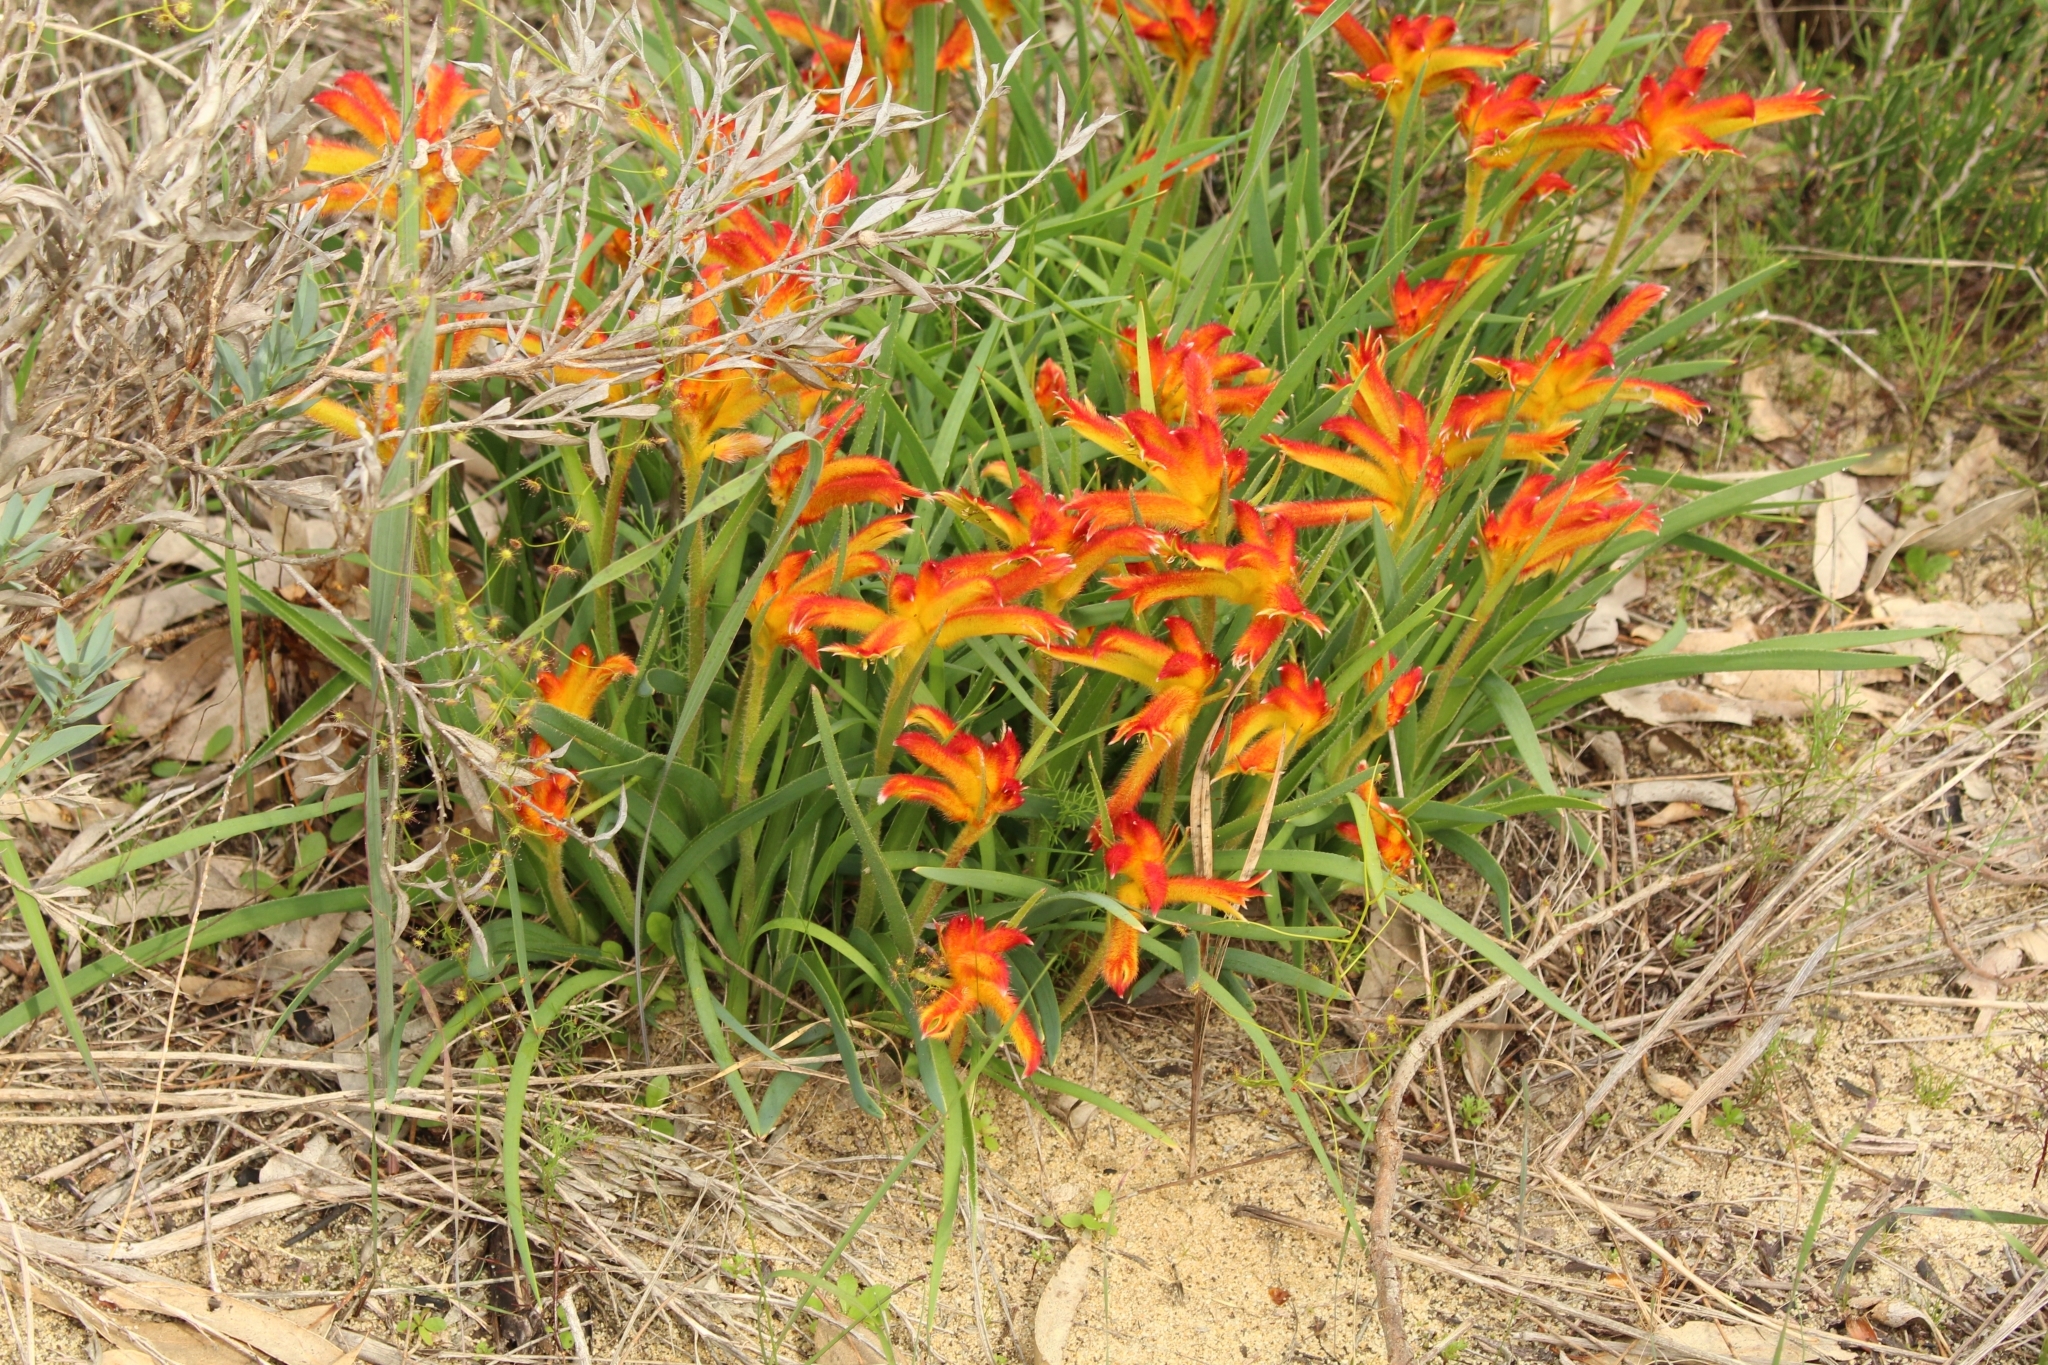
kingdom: Plantae
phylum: Tracheophyta
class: Liliopsida
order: Commelinales
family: Haemodoraceae
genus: Anigozanthos
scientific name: Anigozanthos humilis
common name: Cat's-paw
